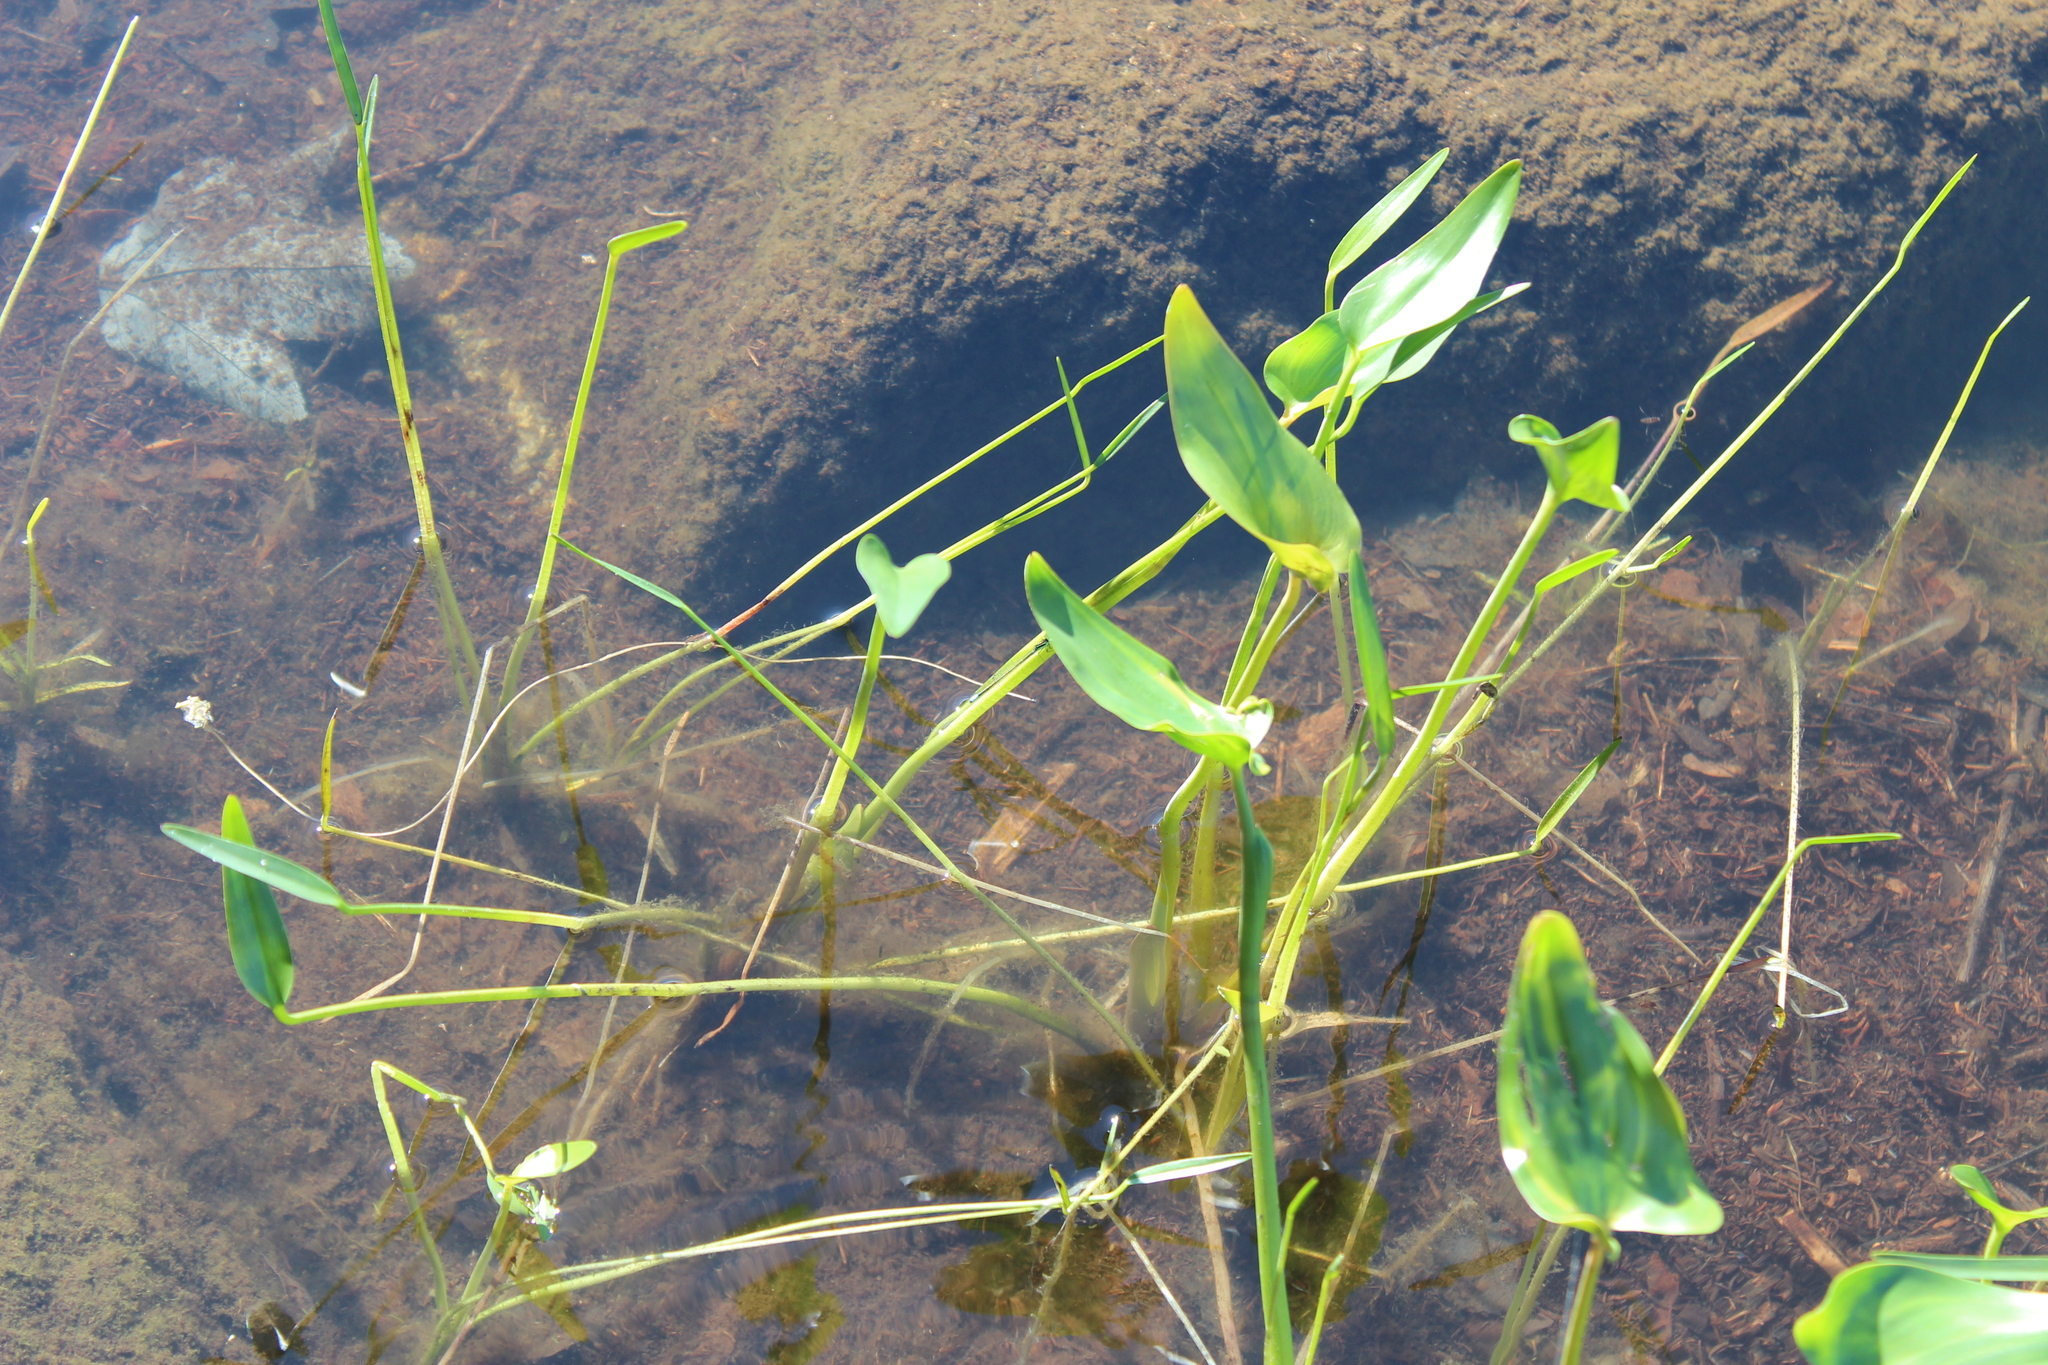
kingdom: Plantae
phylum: Tracheophyta
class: Liliopsida
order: Commelinales
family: Pontederiaceae
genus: Pontederia
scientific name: Pontederia cordata
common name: Pickerelweed
